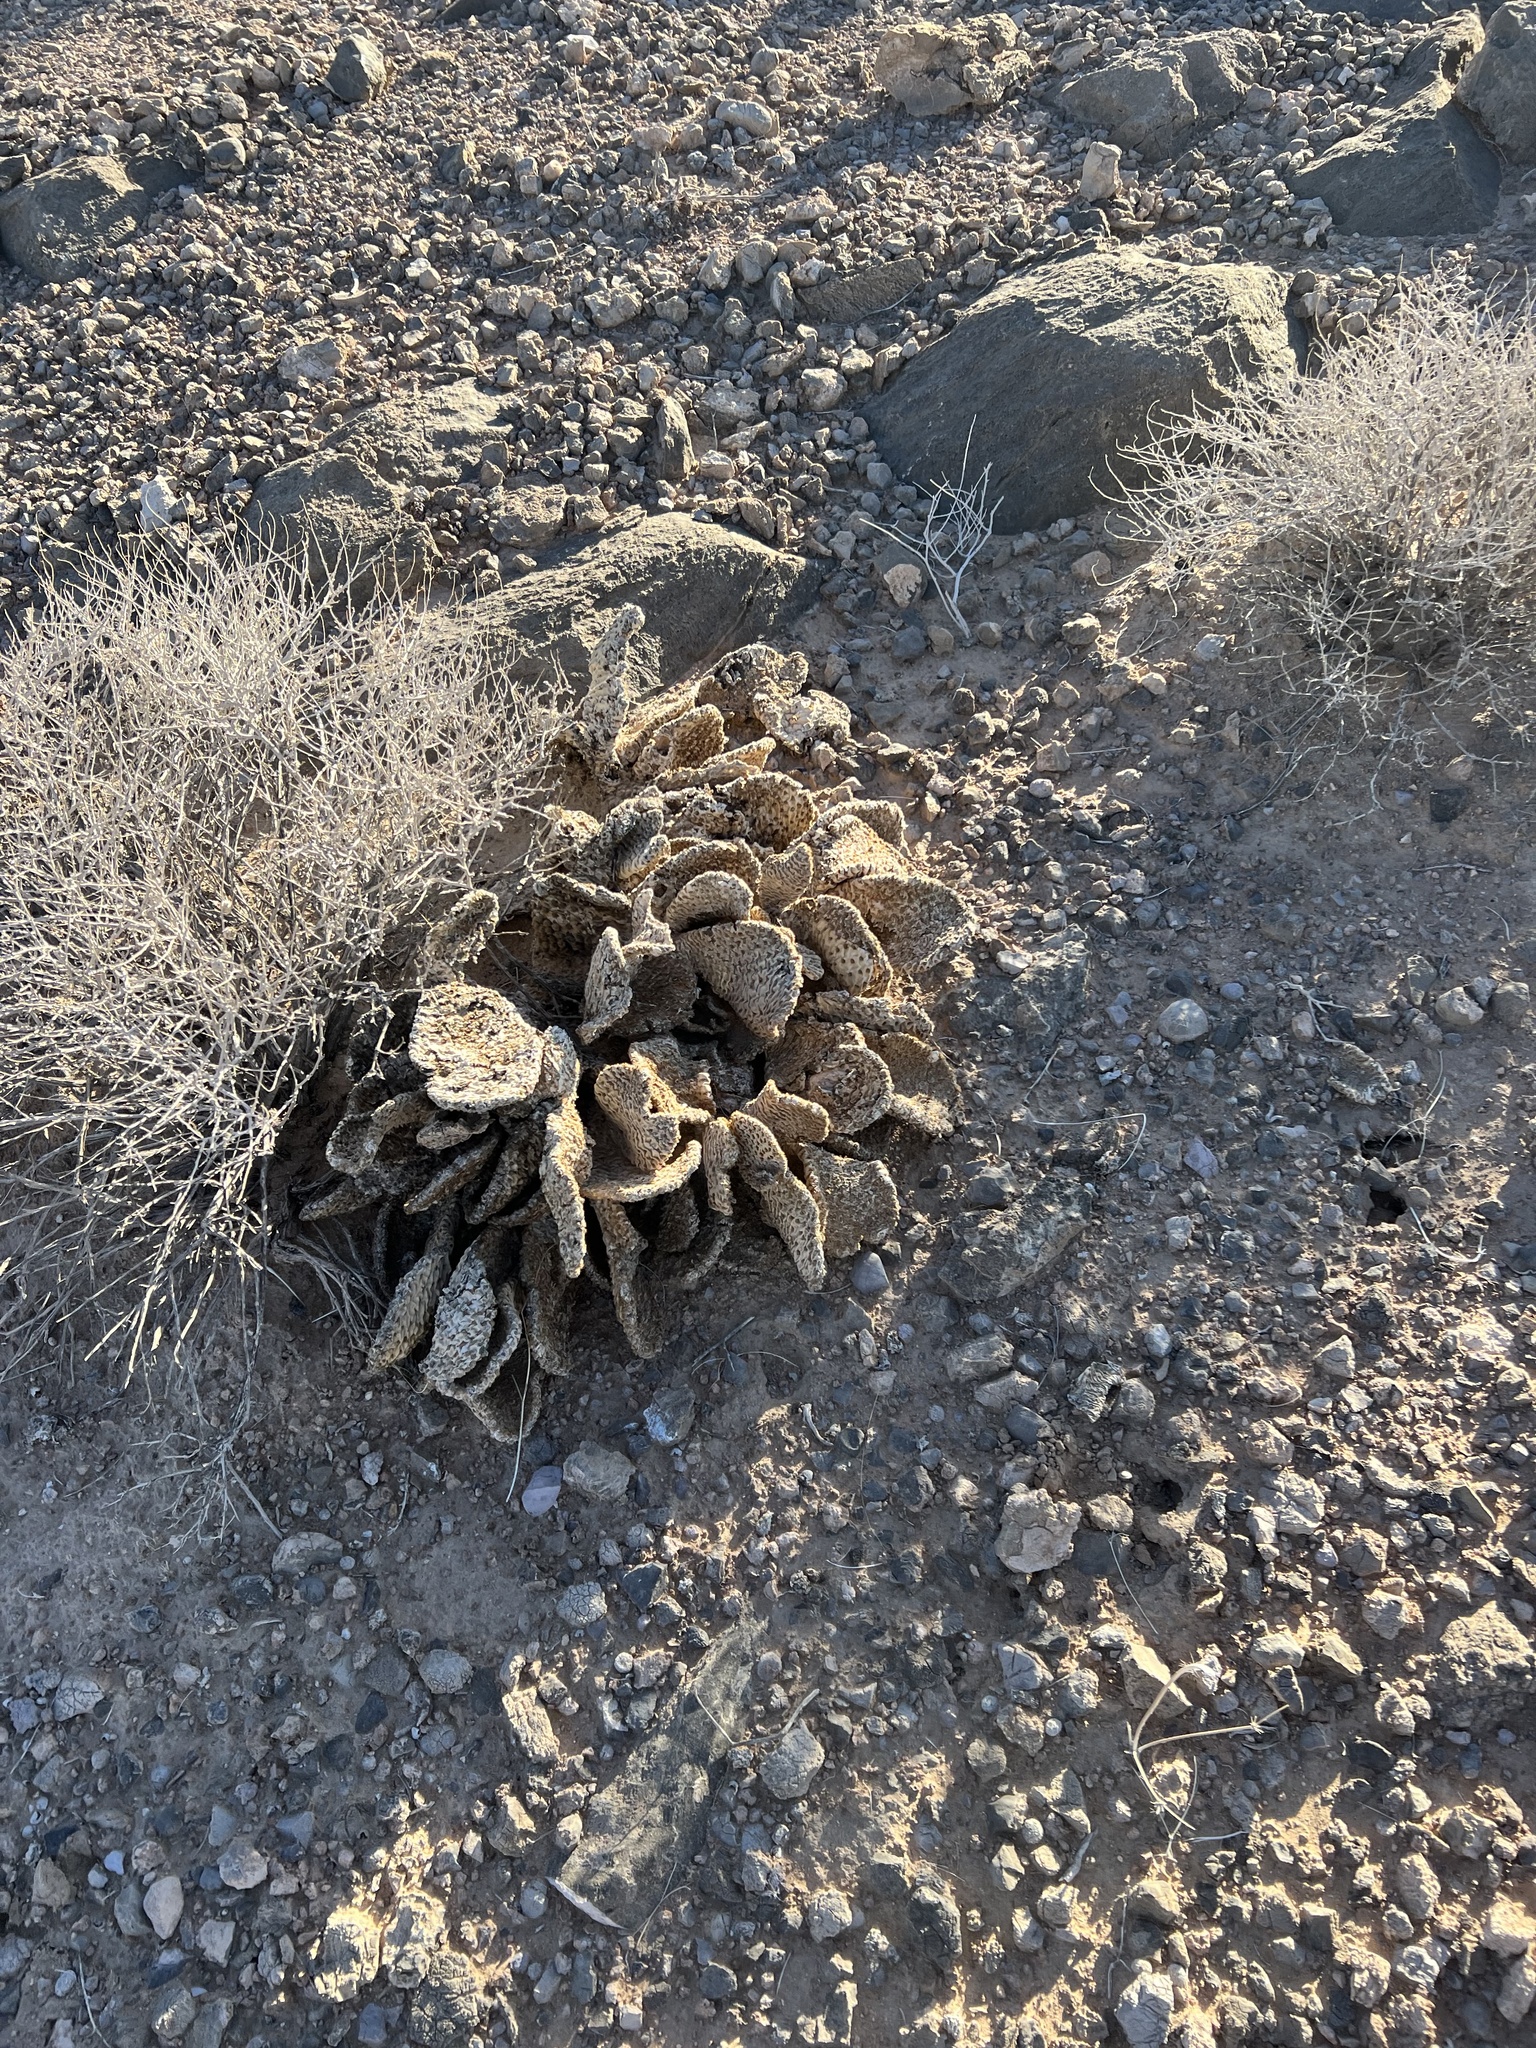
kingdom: Plantae
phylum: Tracheophyta
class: Magnoliopsida
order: Caryophyllales
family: Cactaceae
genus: Opuntia
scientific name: Opuntia basilaris
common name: Beavertail prickly-pear
